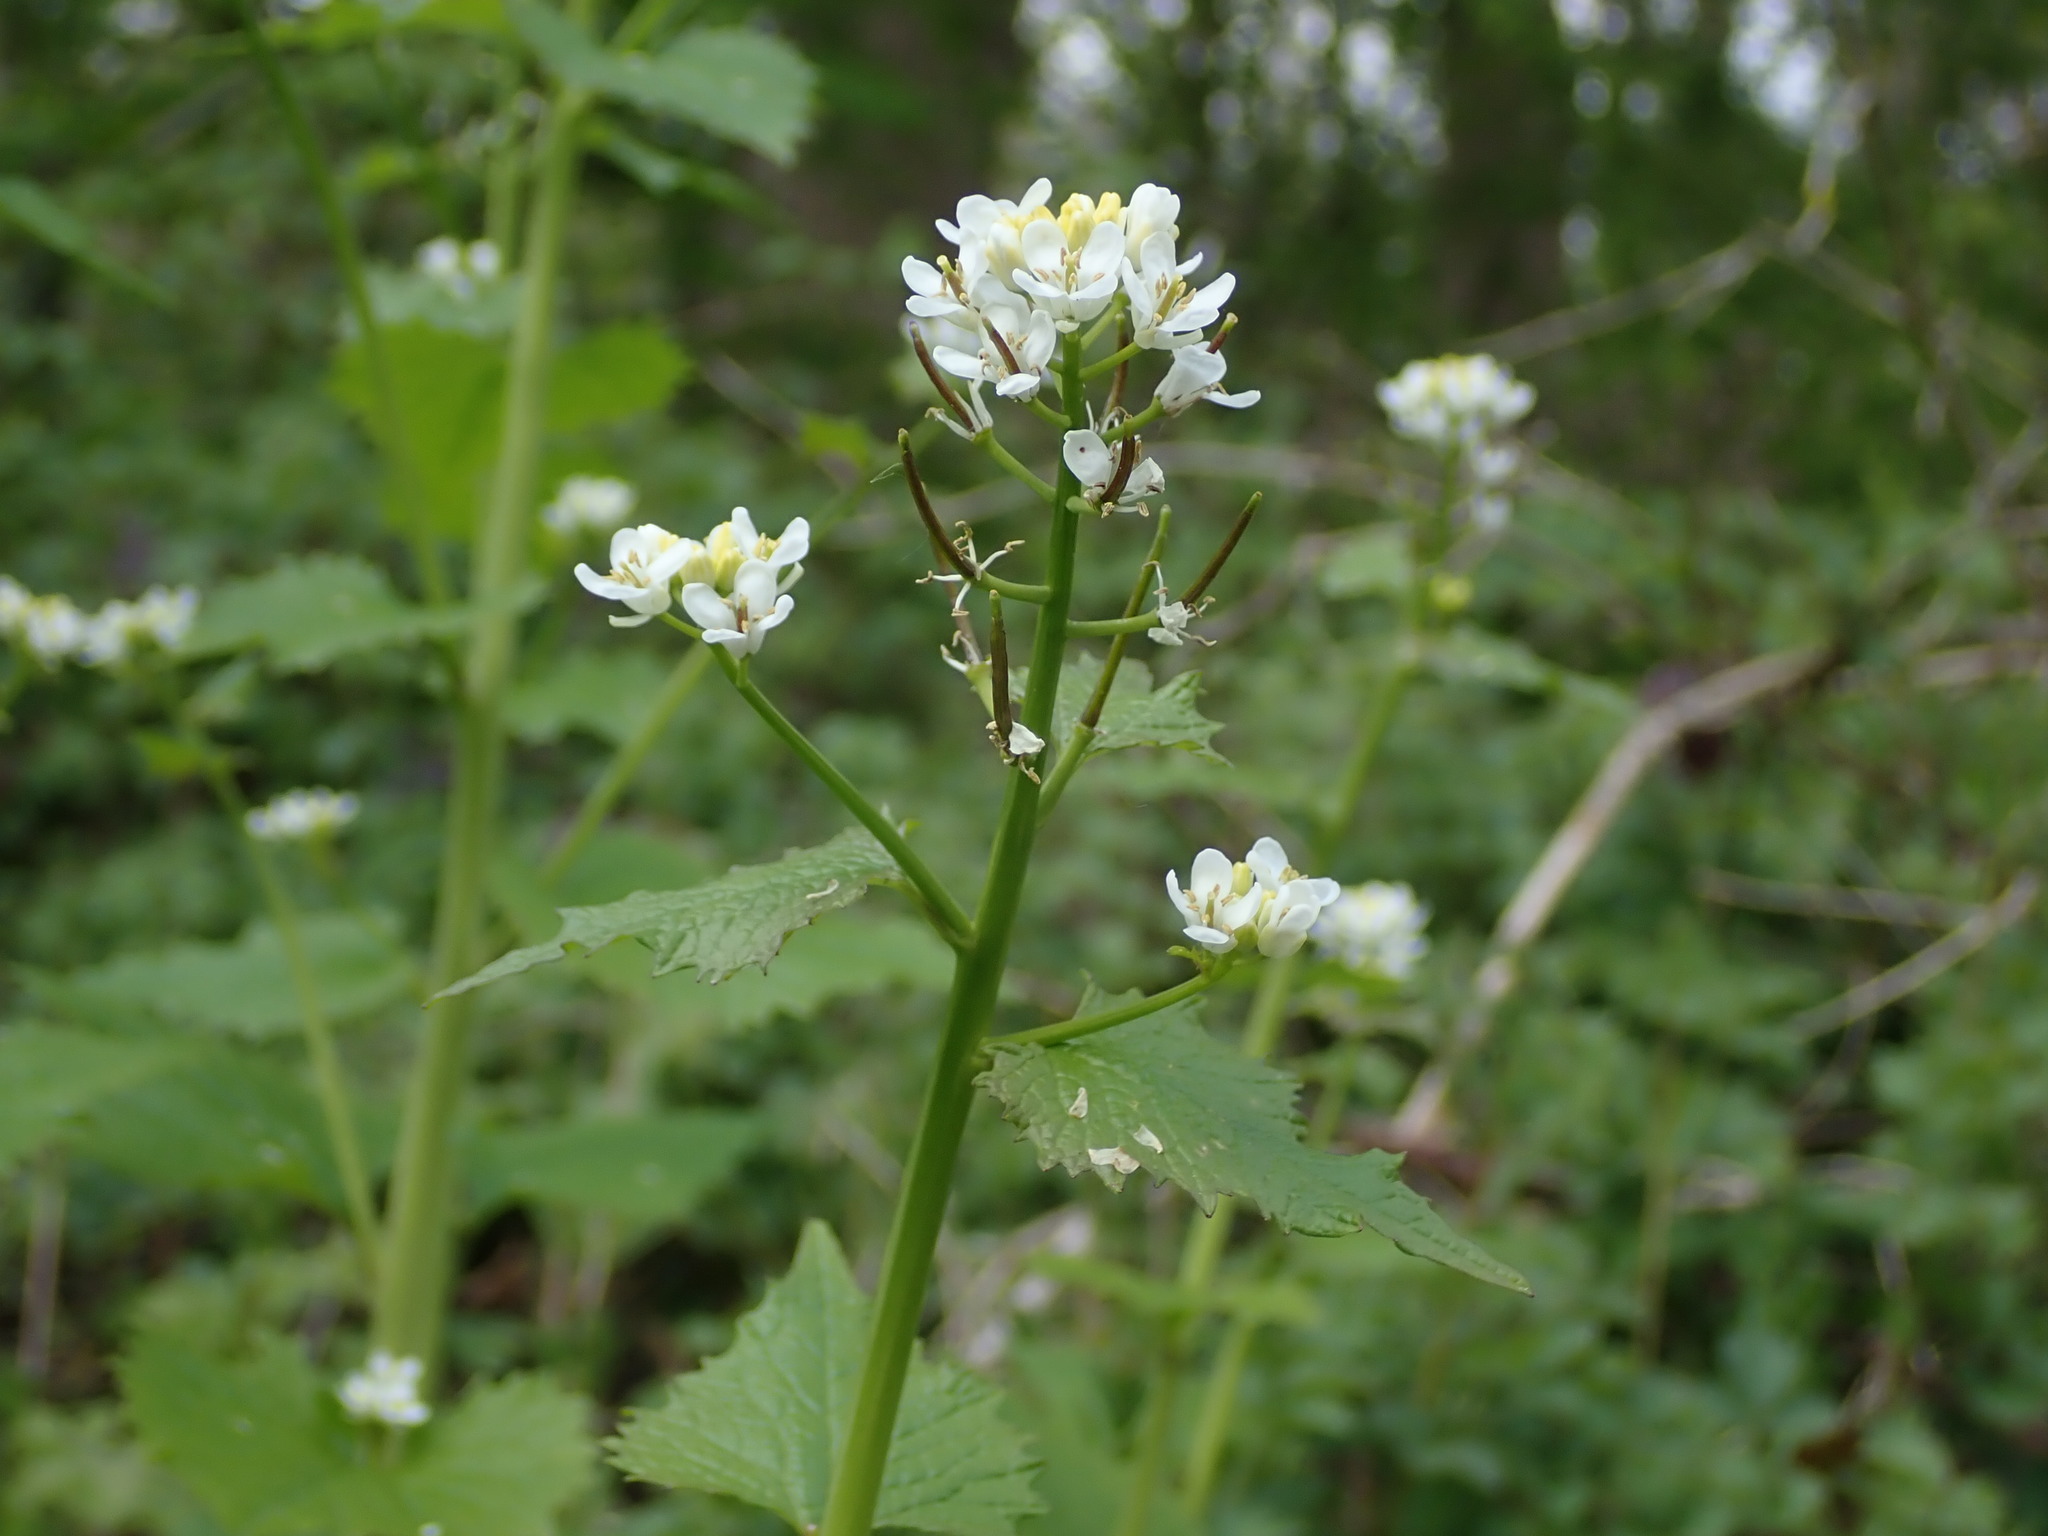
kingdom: Plantae
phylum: Tracheophyta
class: Magnoliopsida
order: Brassicales
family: Brassicaceae
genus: Alliaria
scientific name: Alliaria petiolata
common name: Garlic mustard
